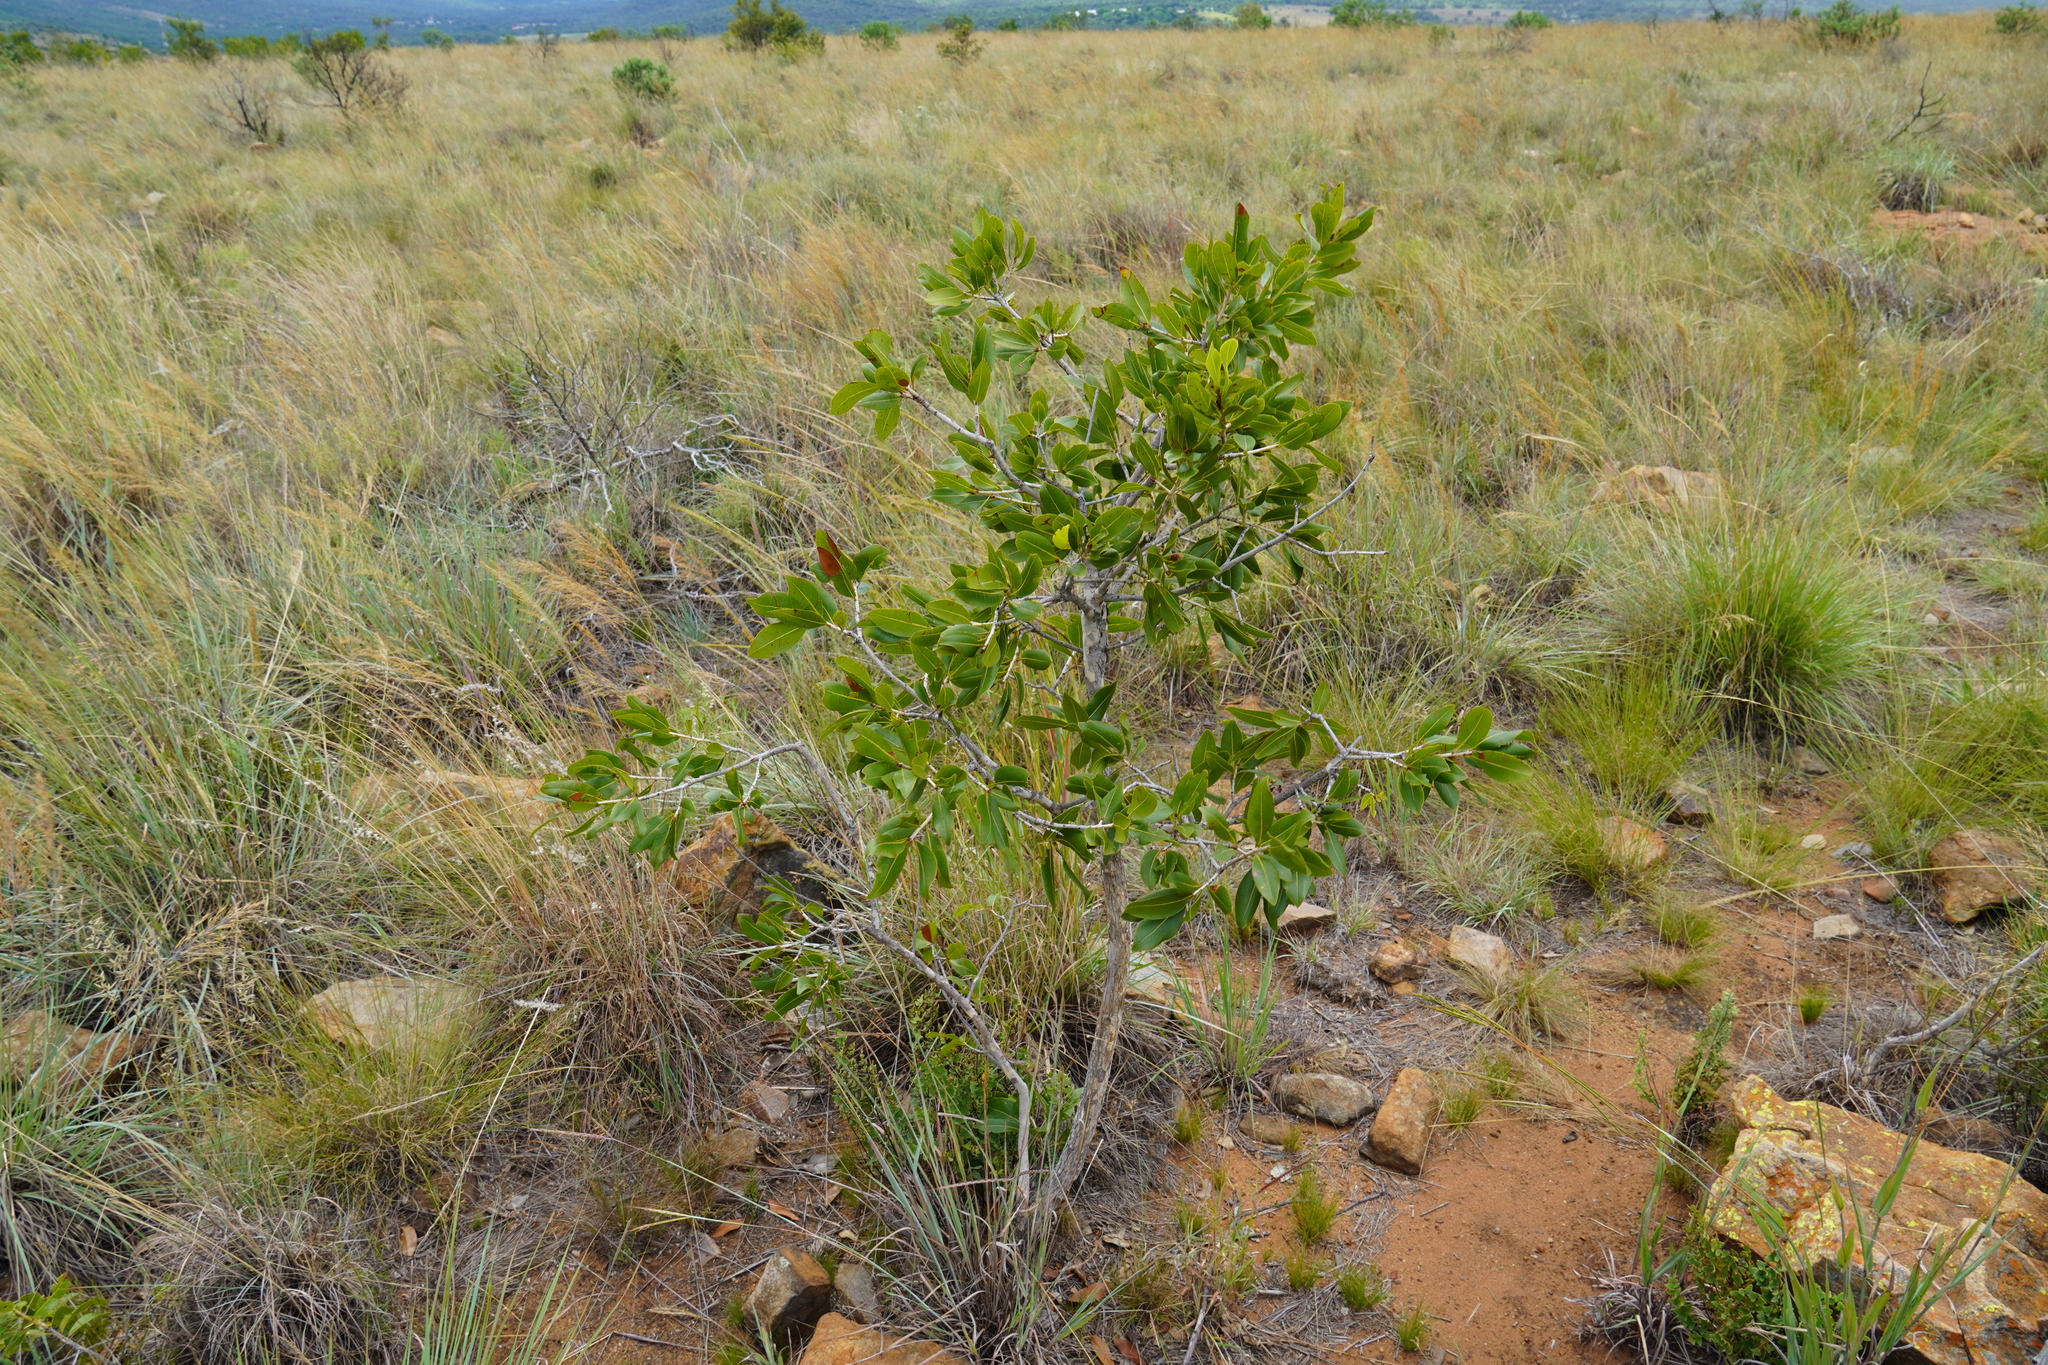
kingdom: Plantae
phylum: Tracheophyta
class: Magnoliopsida
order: Malpighiales
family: Ochnaceae
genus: Ochna
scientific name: Ochna pulchra
